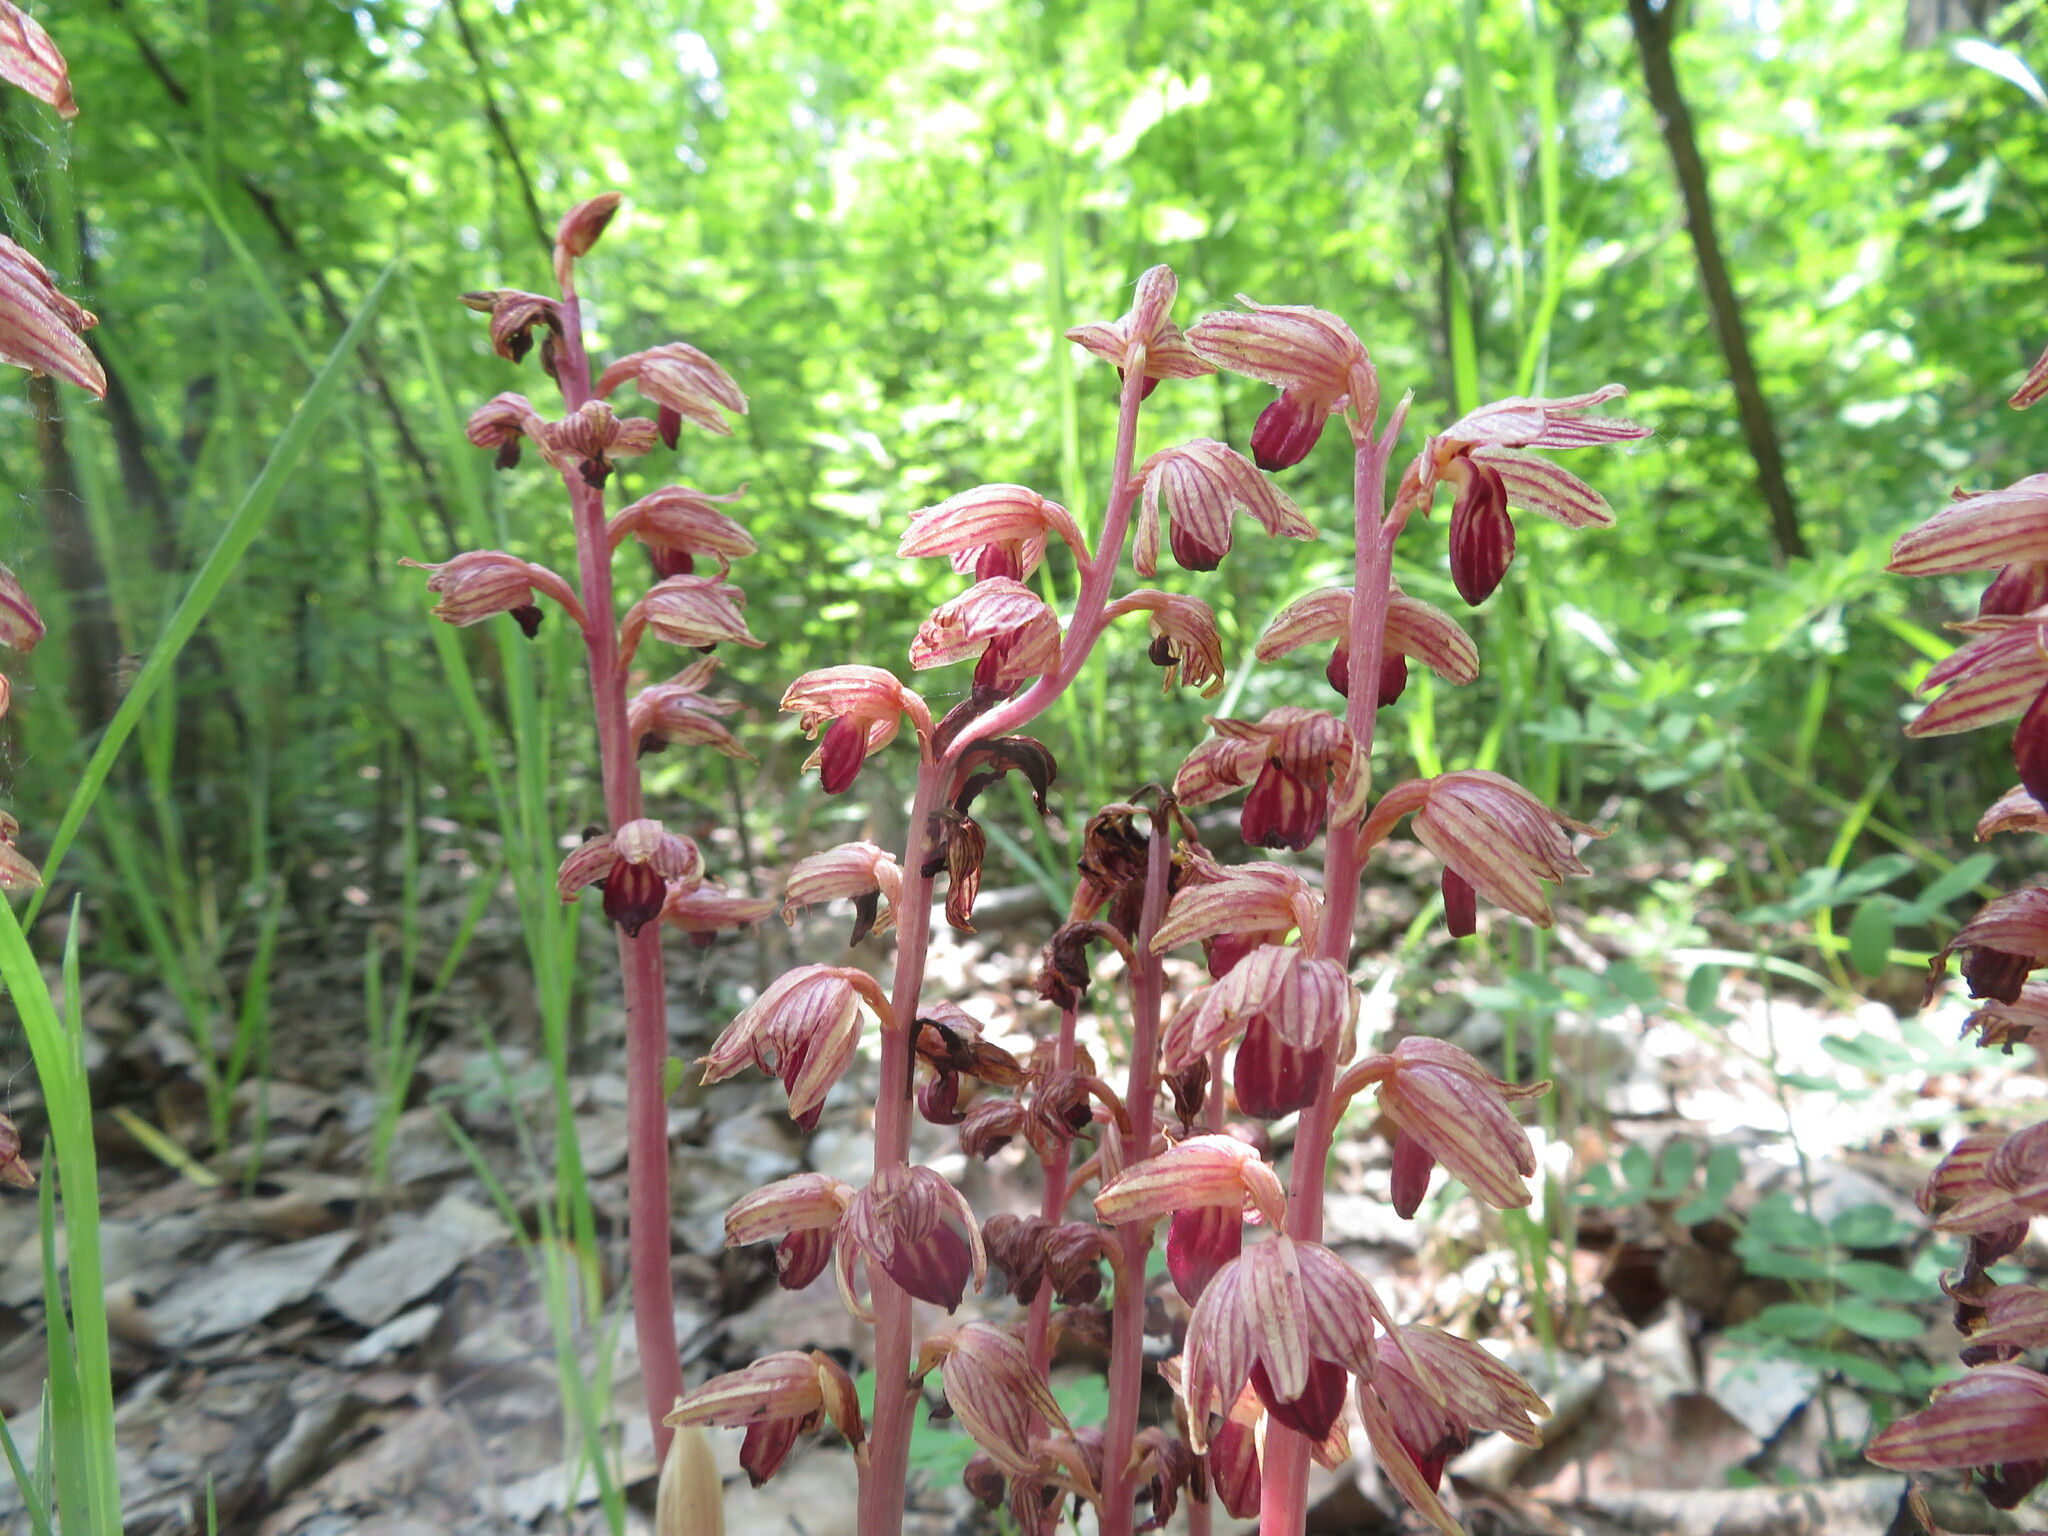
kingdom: Plantae
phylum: Tracheophyta
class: Liliopsida
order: Asparagales
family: Orchidaceae
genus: Corallorhiza
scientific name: Corallorhiza striata
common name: Hooded coralroot
